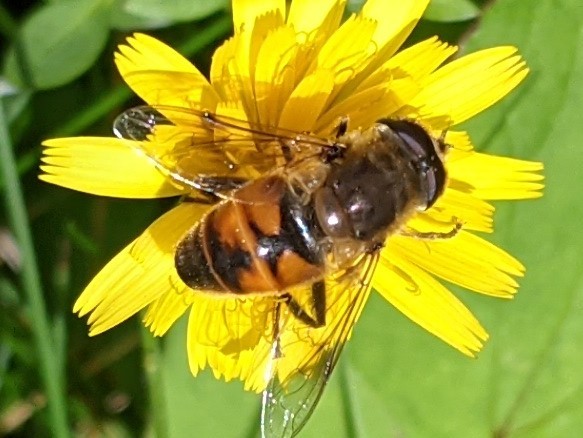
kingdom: Animalia
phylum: Arthropoda
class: Insecta
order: Diptera
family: Syrphidae
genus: Eristalis
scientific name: Eristalis tenax
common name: Drone fly
